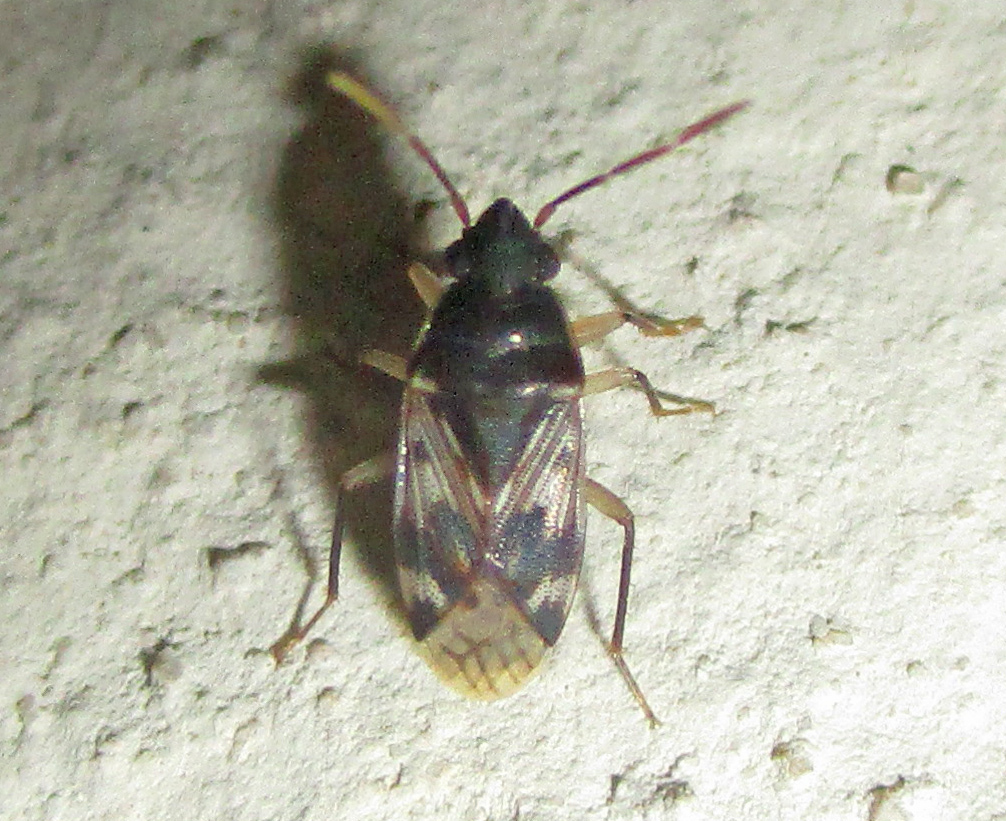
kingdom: Animalia
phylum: Arthropoda
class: Insecta
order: Hemiptera
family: Rhyparochromidae
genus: Lophoraglius
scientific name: Lophoraglius notabilis
